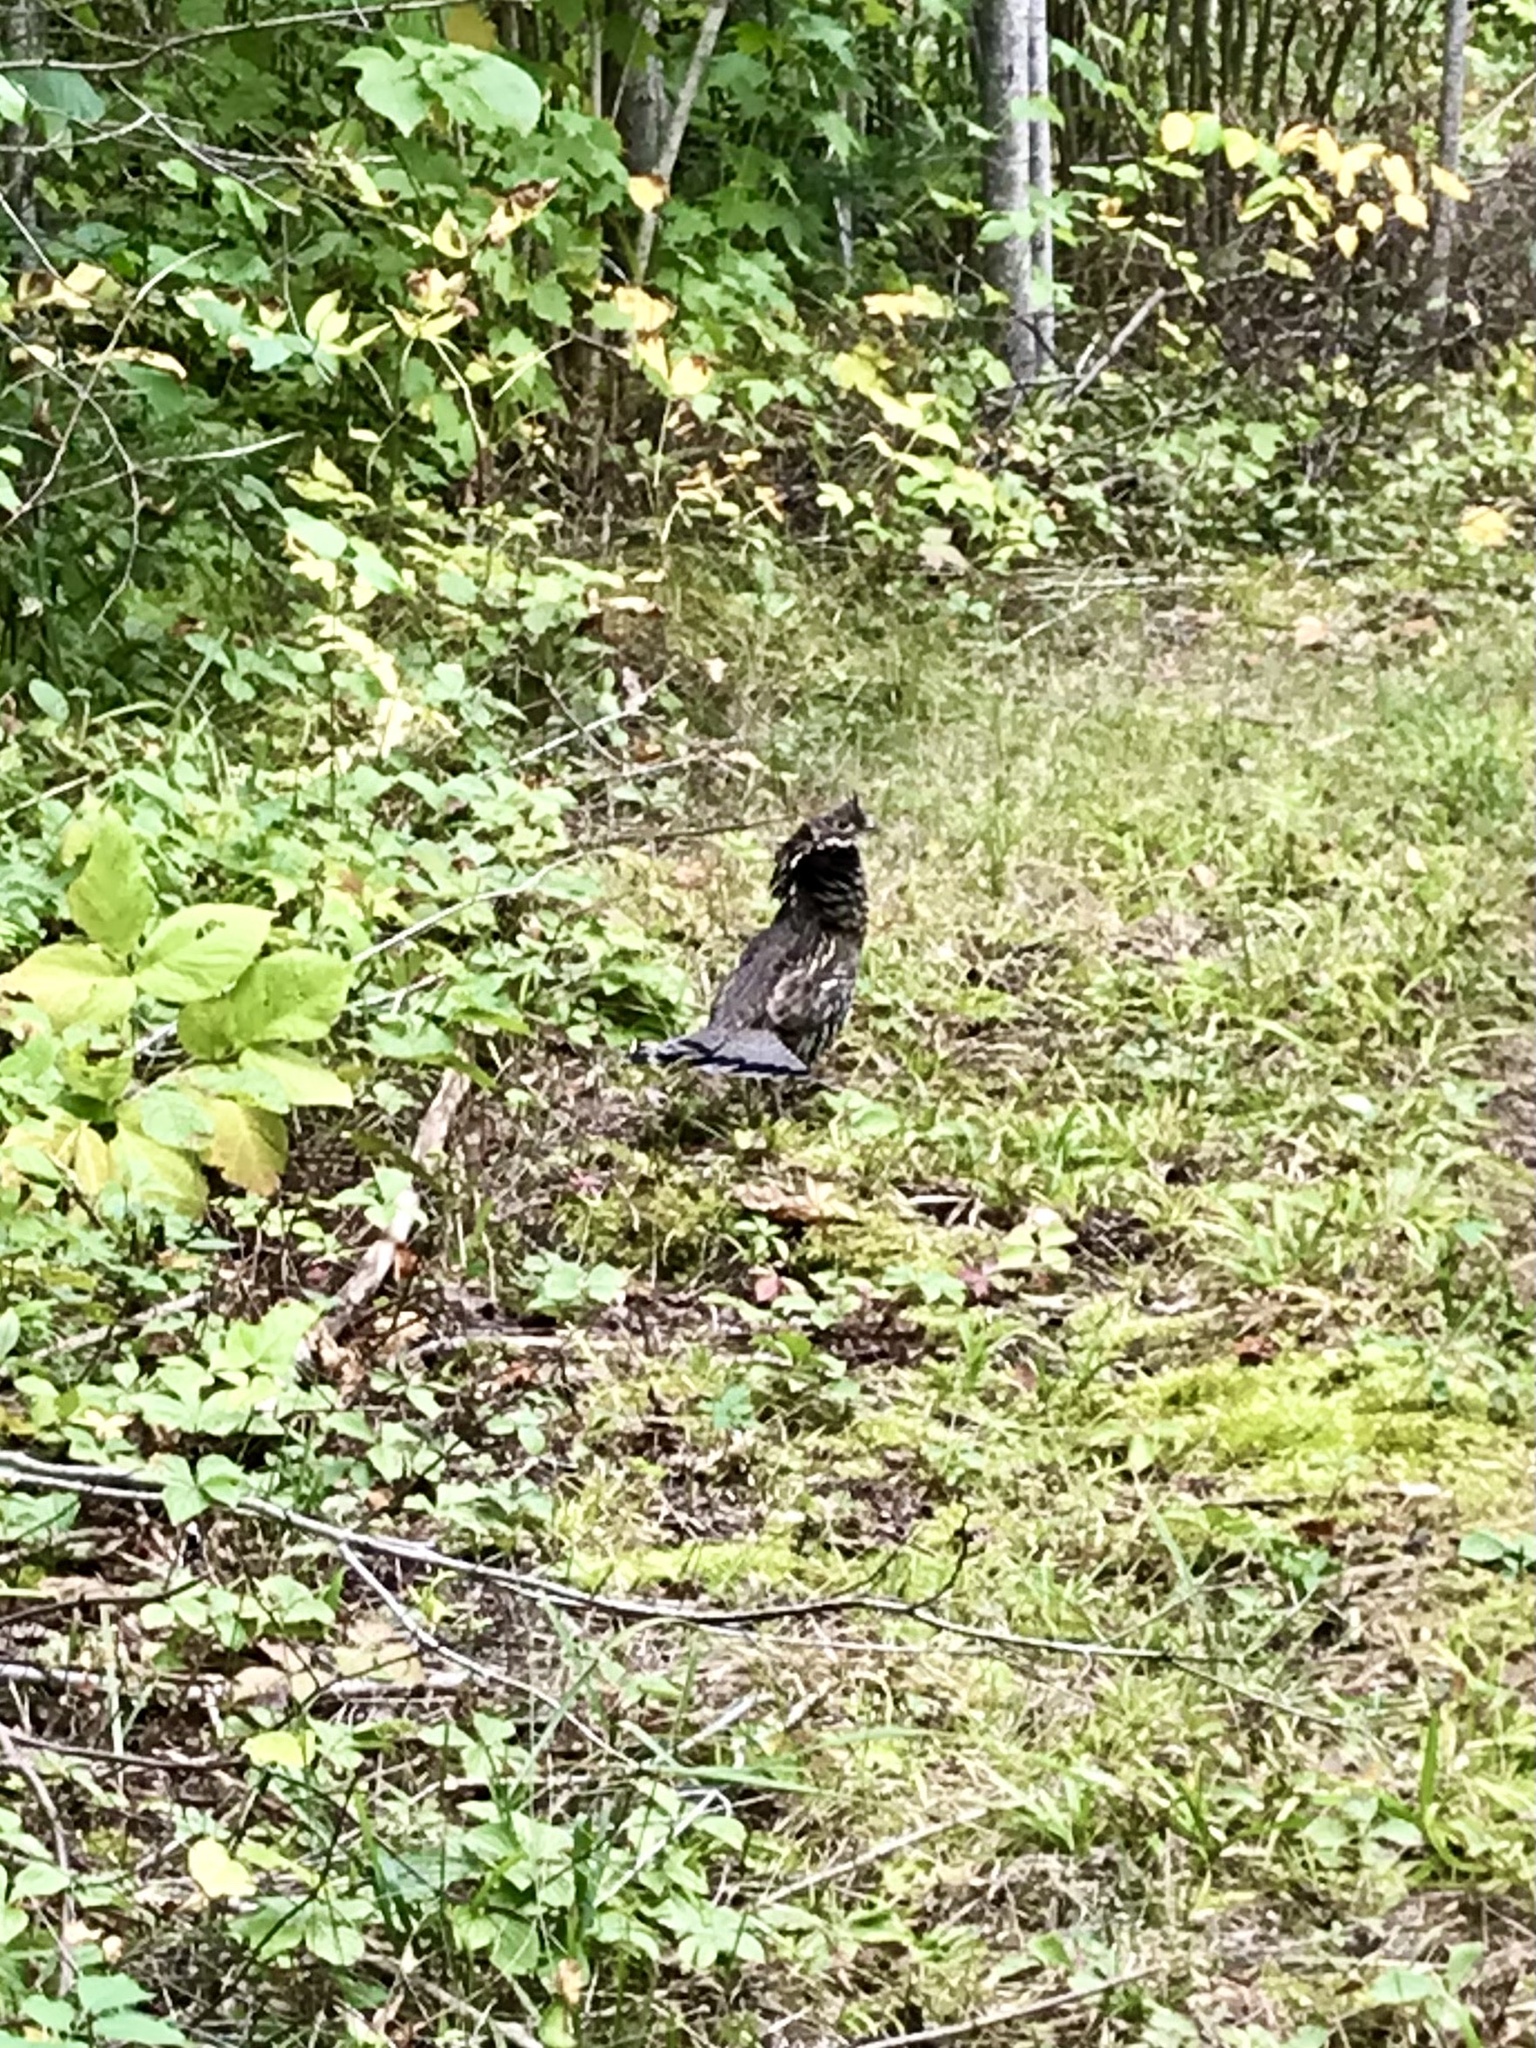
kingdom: Animalia
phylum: Chordata
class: Aves
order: Galliformes
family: Phasianidae
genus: Bonasa
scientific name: Bonasa umbellus
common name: Ruffed grouse
